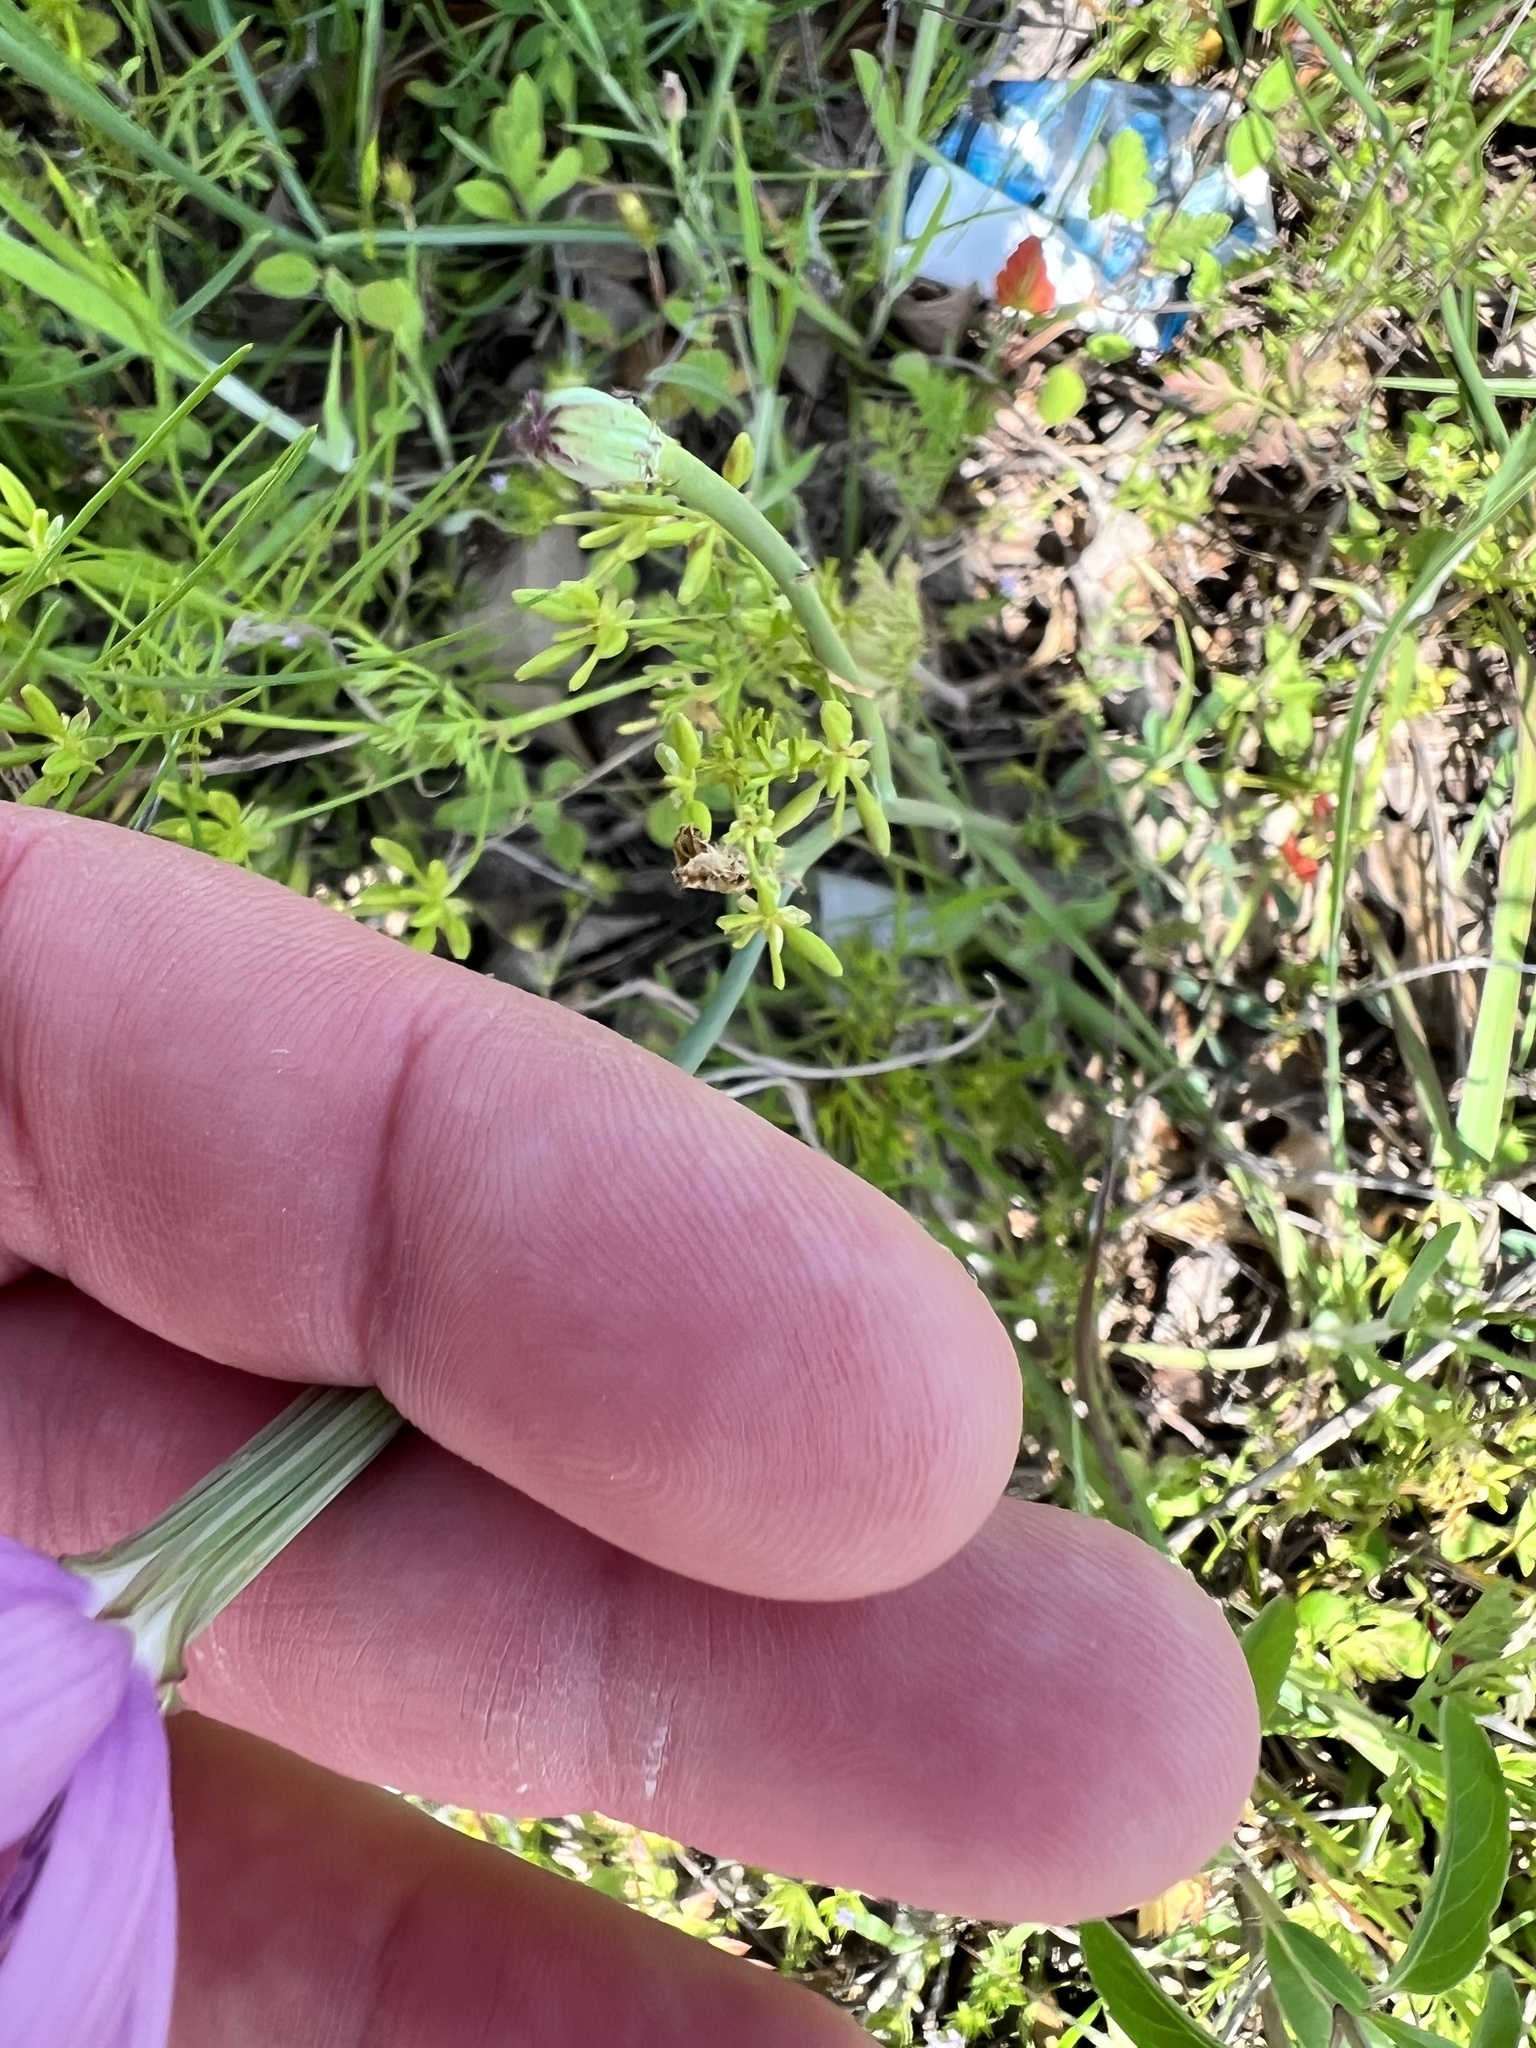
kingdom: Plantae
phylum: Tracheophyta
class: Magnoliopsida
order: Asterales
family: Asteraceae
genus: Lygodesmia
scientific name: Lygodesmia texana
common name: Texas skeleton-plant
